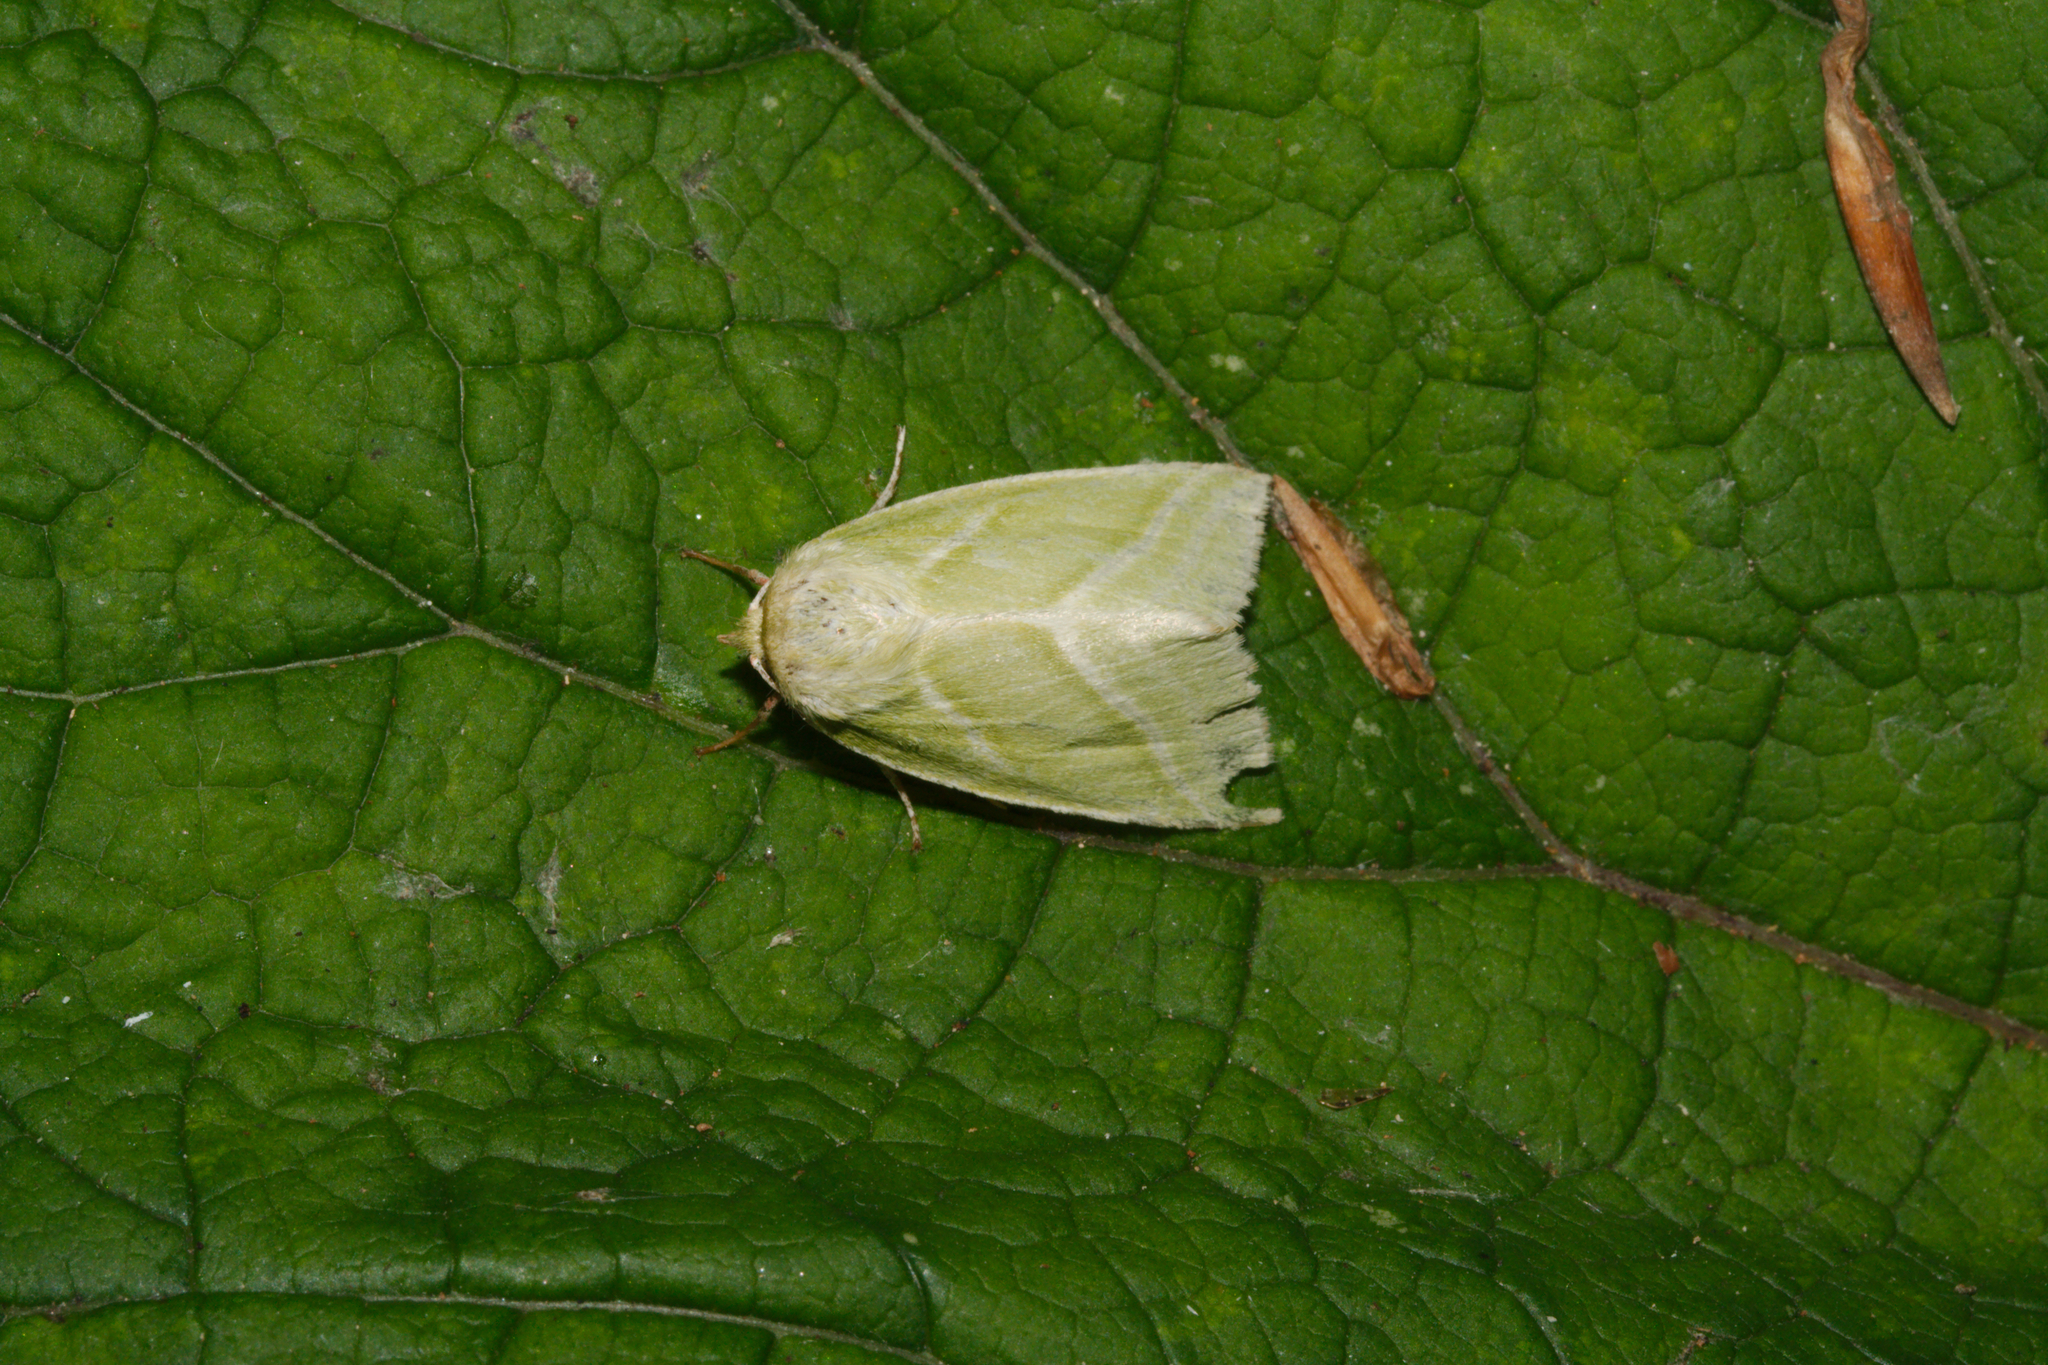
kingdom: Animalia
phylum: Arthropoda
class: Insecta
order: Lepidoptera
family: Nolidae
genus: Pseudoips
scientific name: Pseudoips prasinana
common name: Green silver-lines
